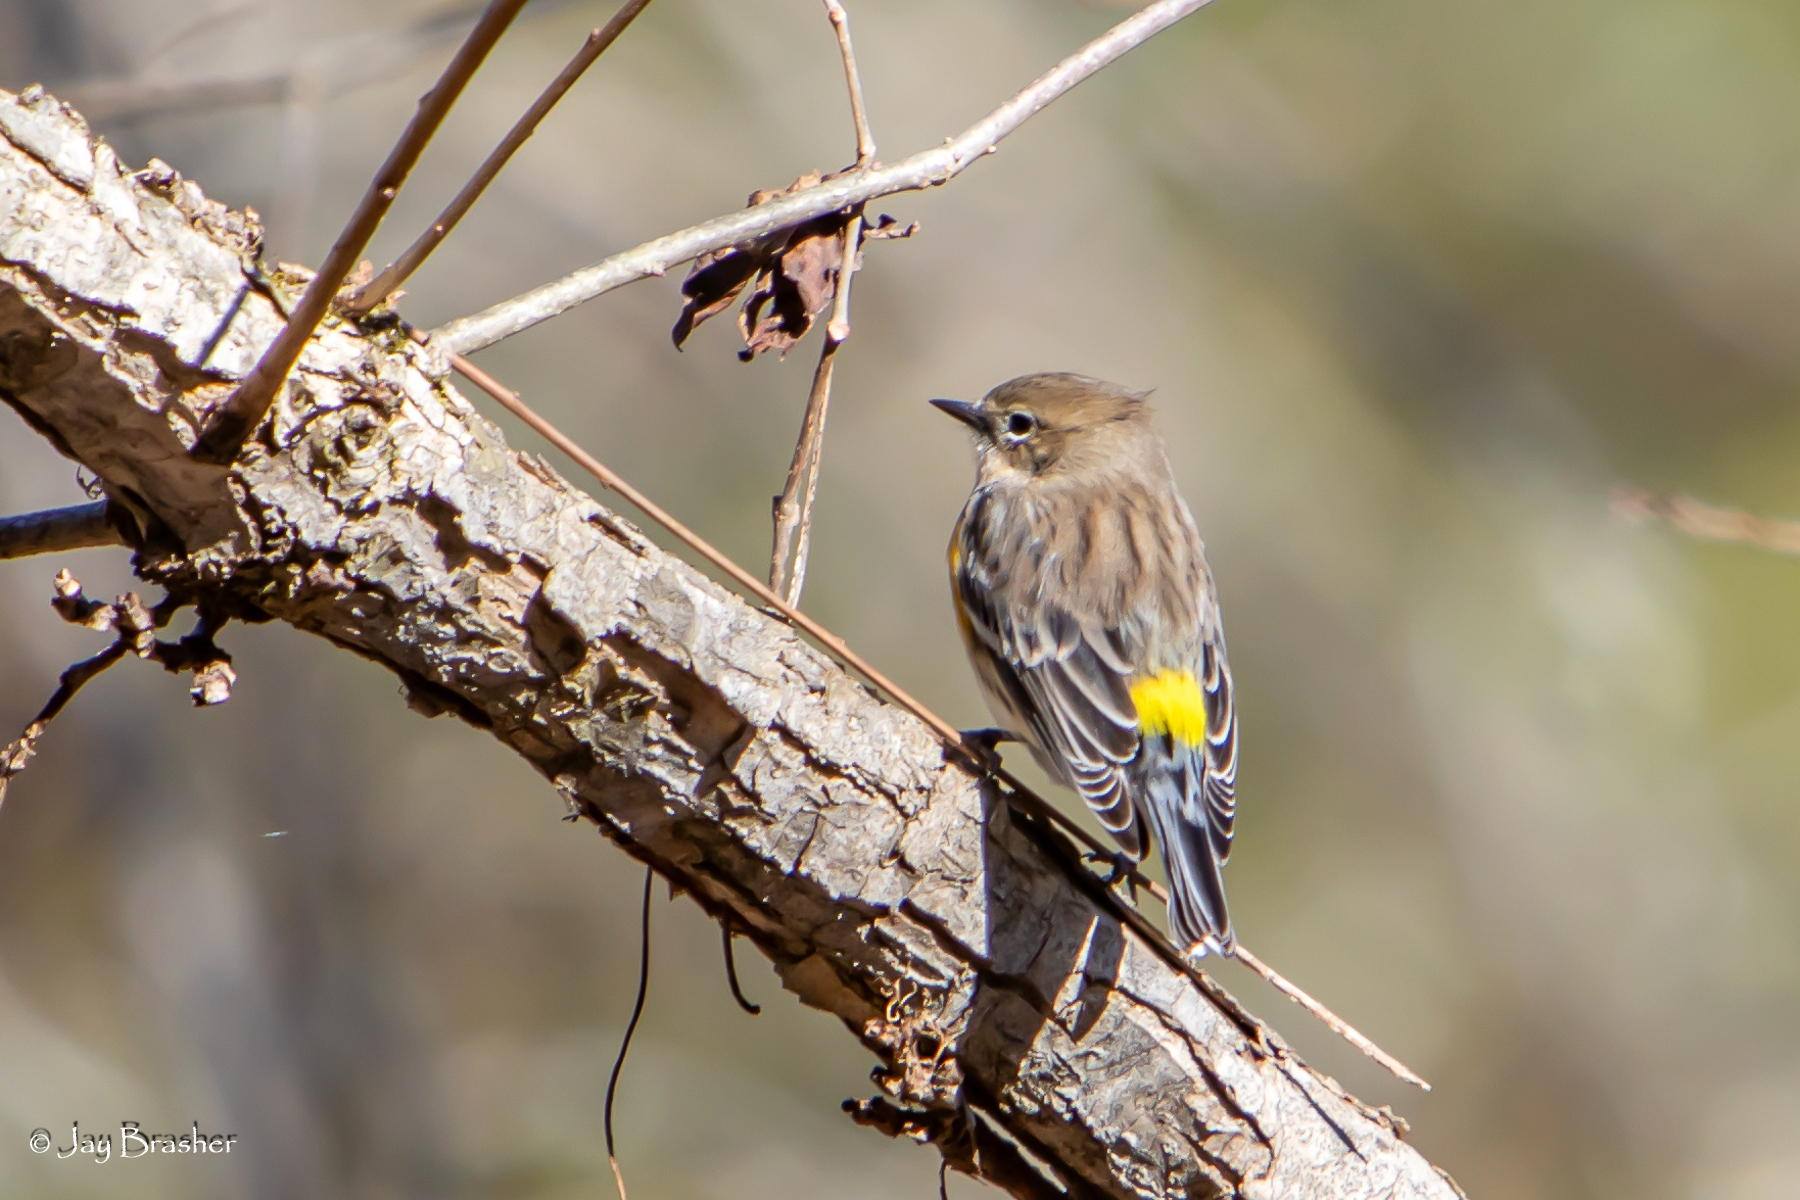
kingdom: Animalia
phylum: Chordata
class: Aves
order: Passeriformes
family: Parulidae
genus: Setophaga
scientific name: Setophaga coronata
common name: Myrtle warbler
